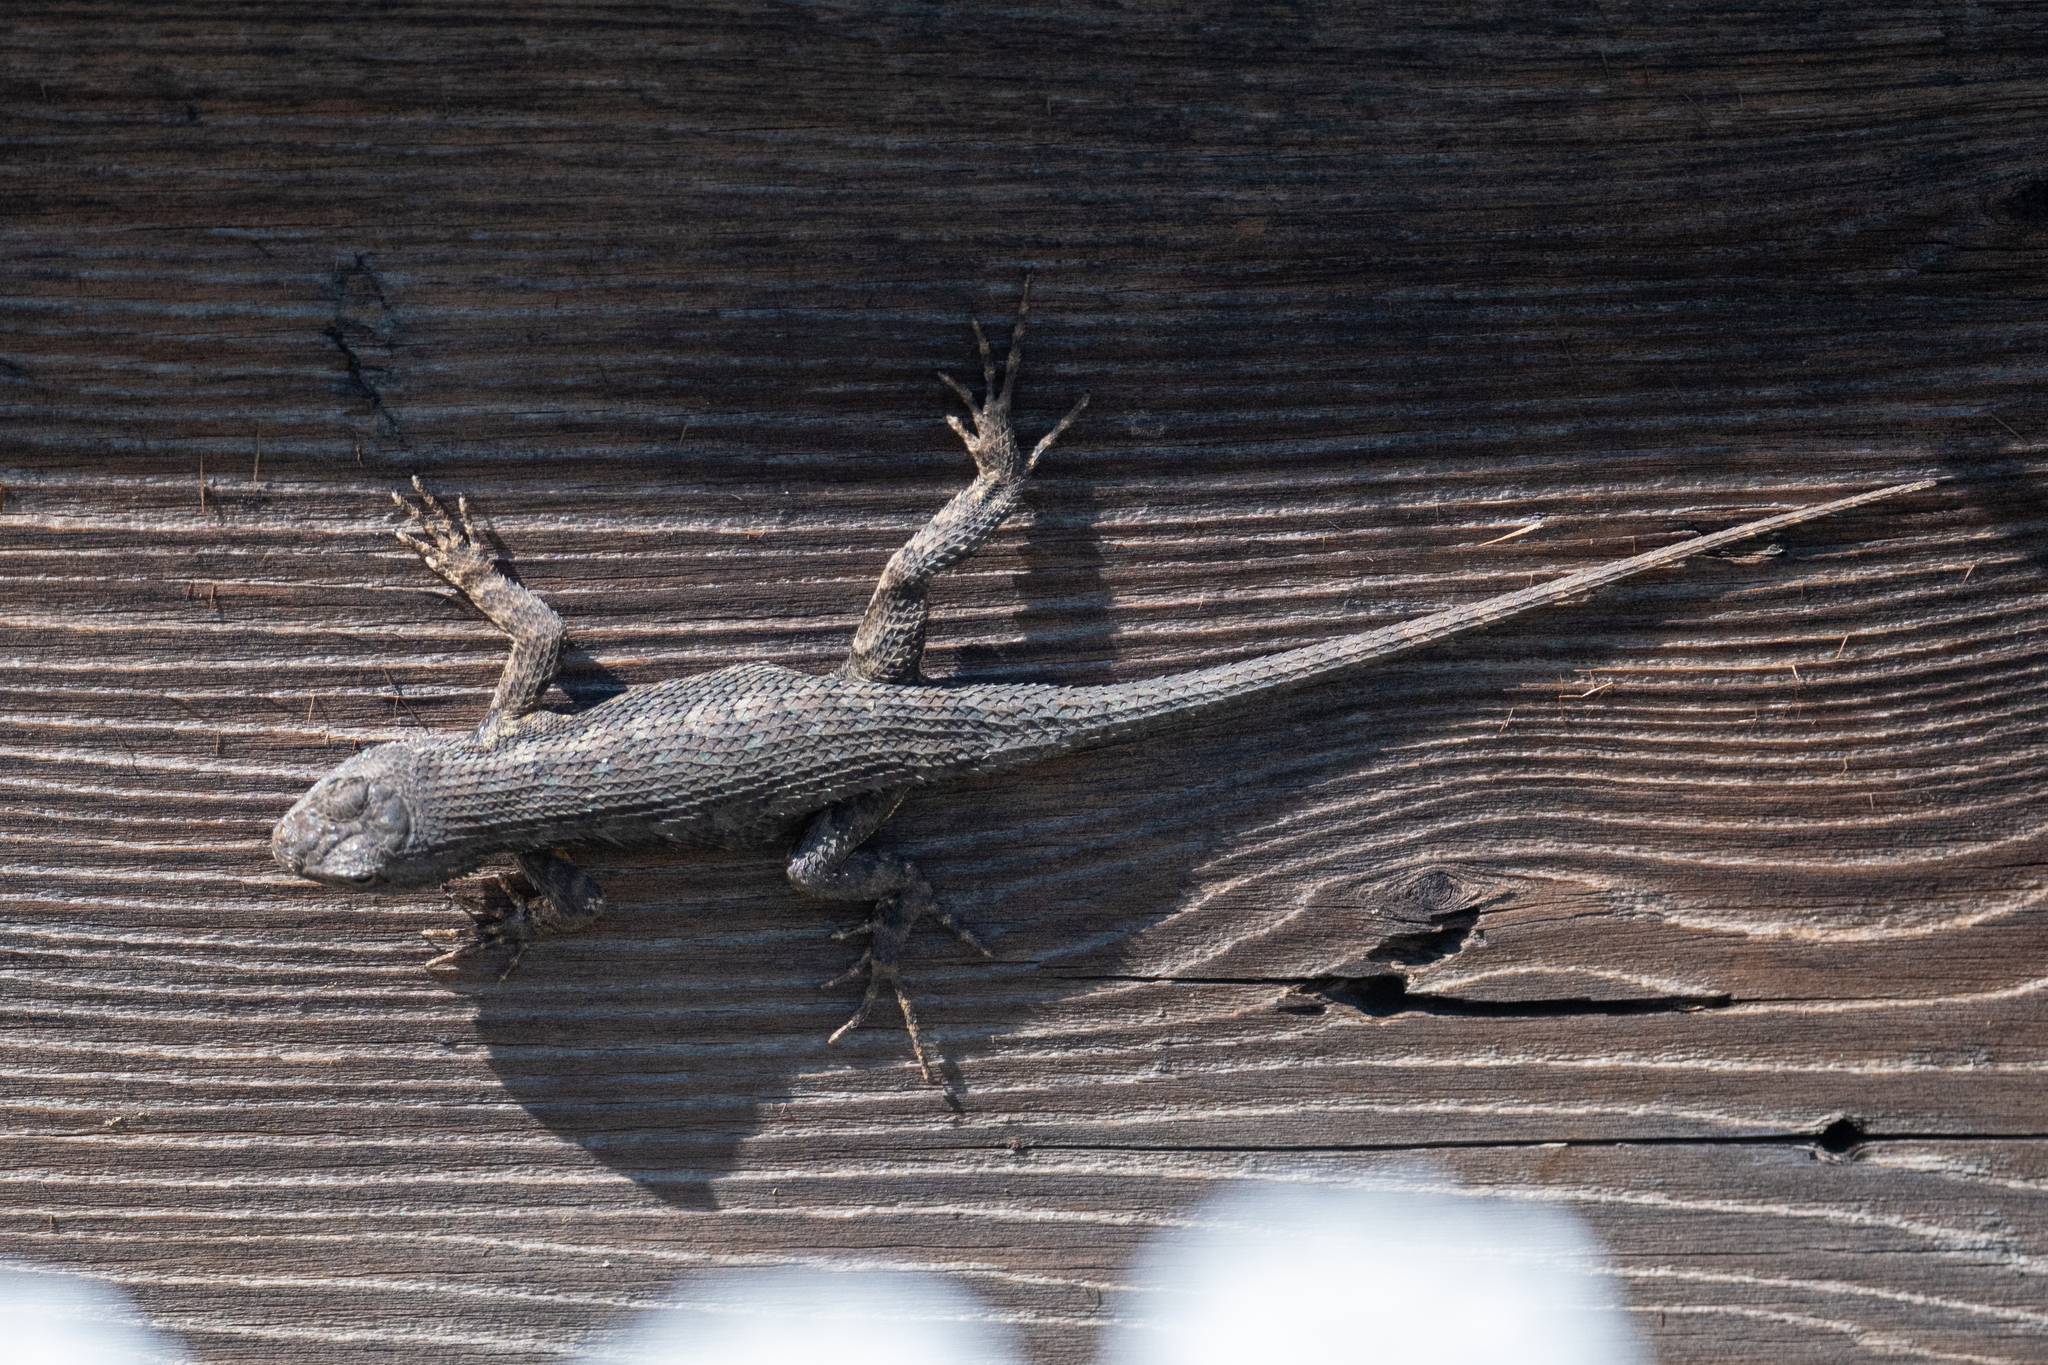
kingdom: Animalia
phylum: Chordata
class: Squamata
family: Phrynosomatidae
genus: Sceloporus
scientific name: Sceloporus occidentalis
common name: Western fence lizard
